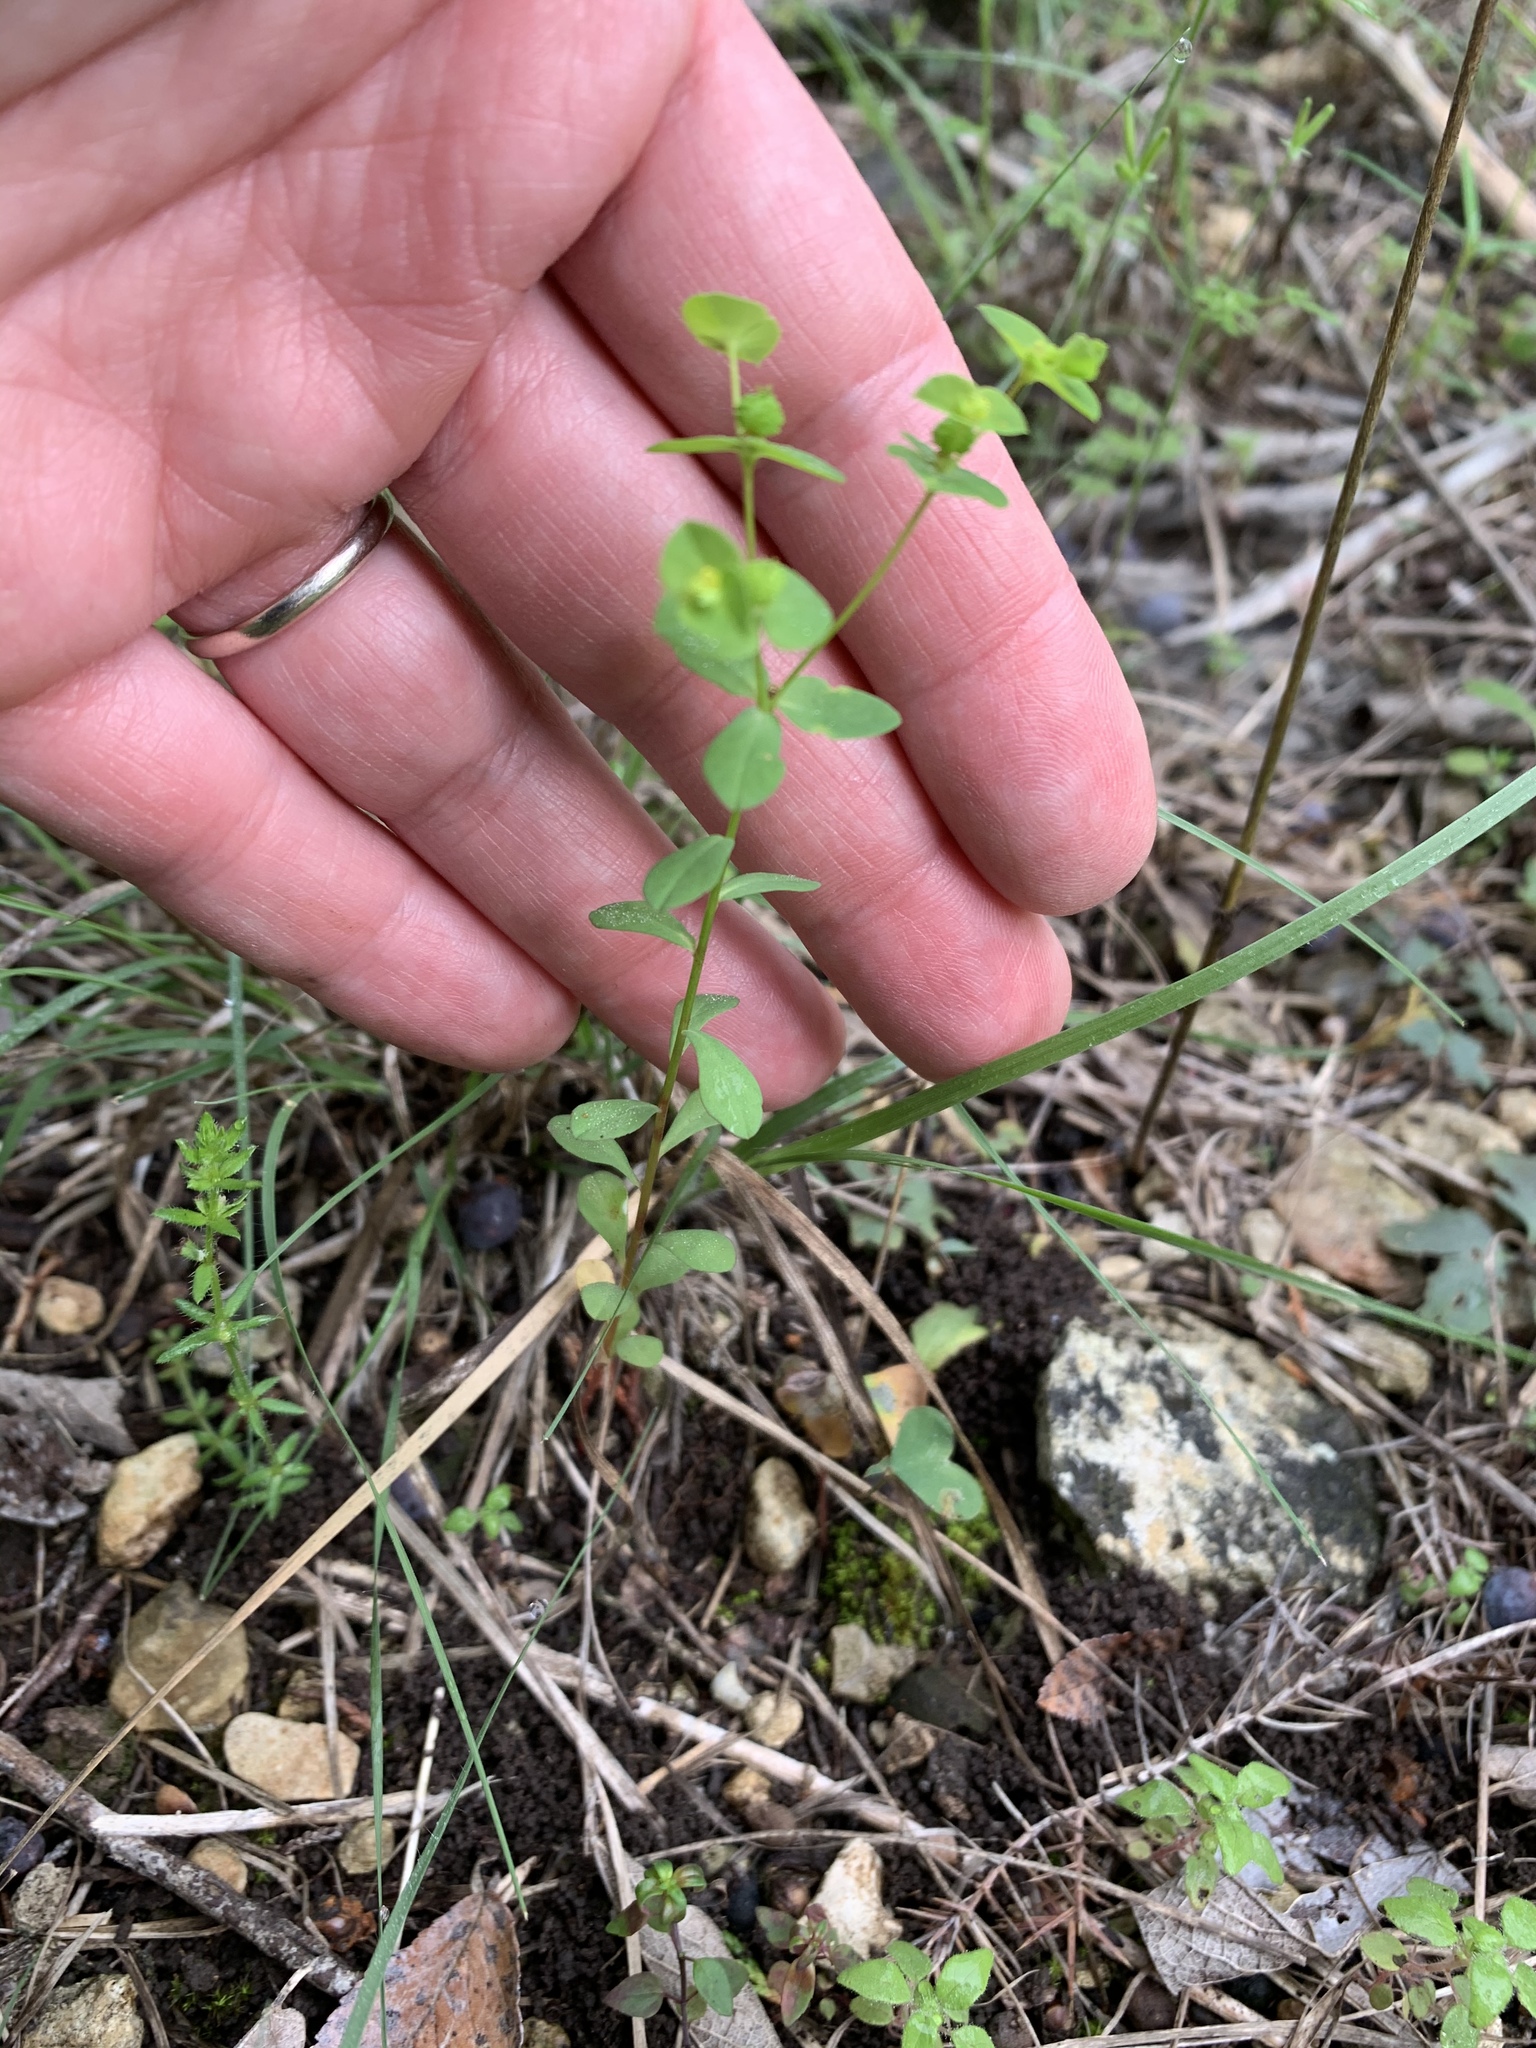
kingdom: Plantae
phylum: Tracheophyta
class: Magnoliopsida
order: Malpighiales
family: Euphorbiaceae
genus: Euphorbia
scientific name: Euphorbia spathulata
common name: Blunt spurge
